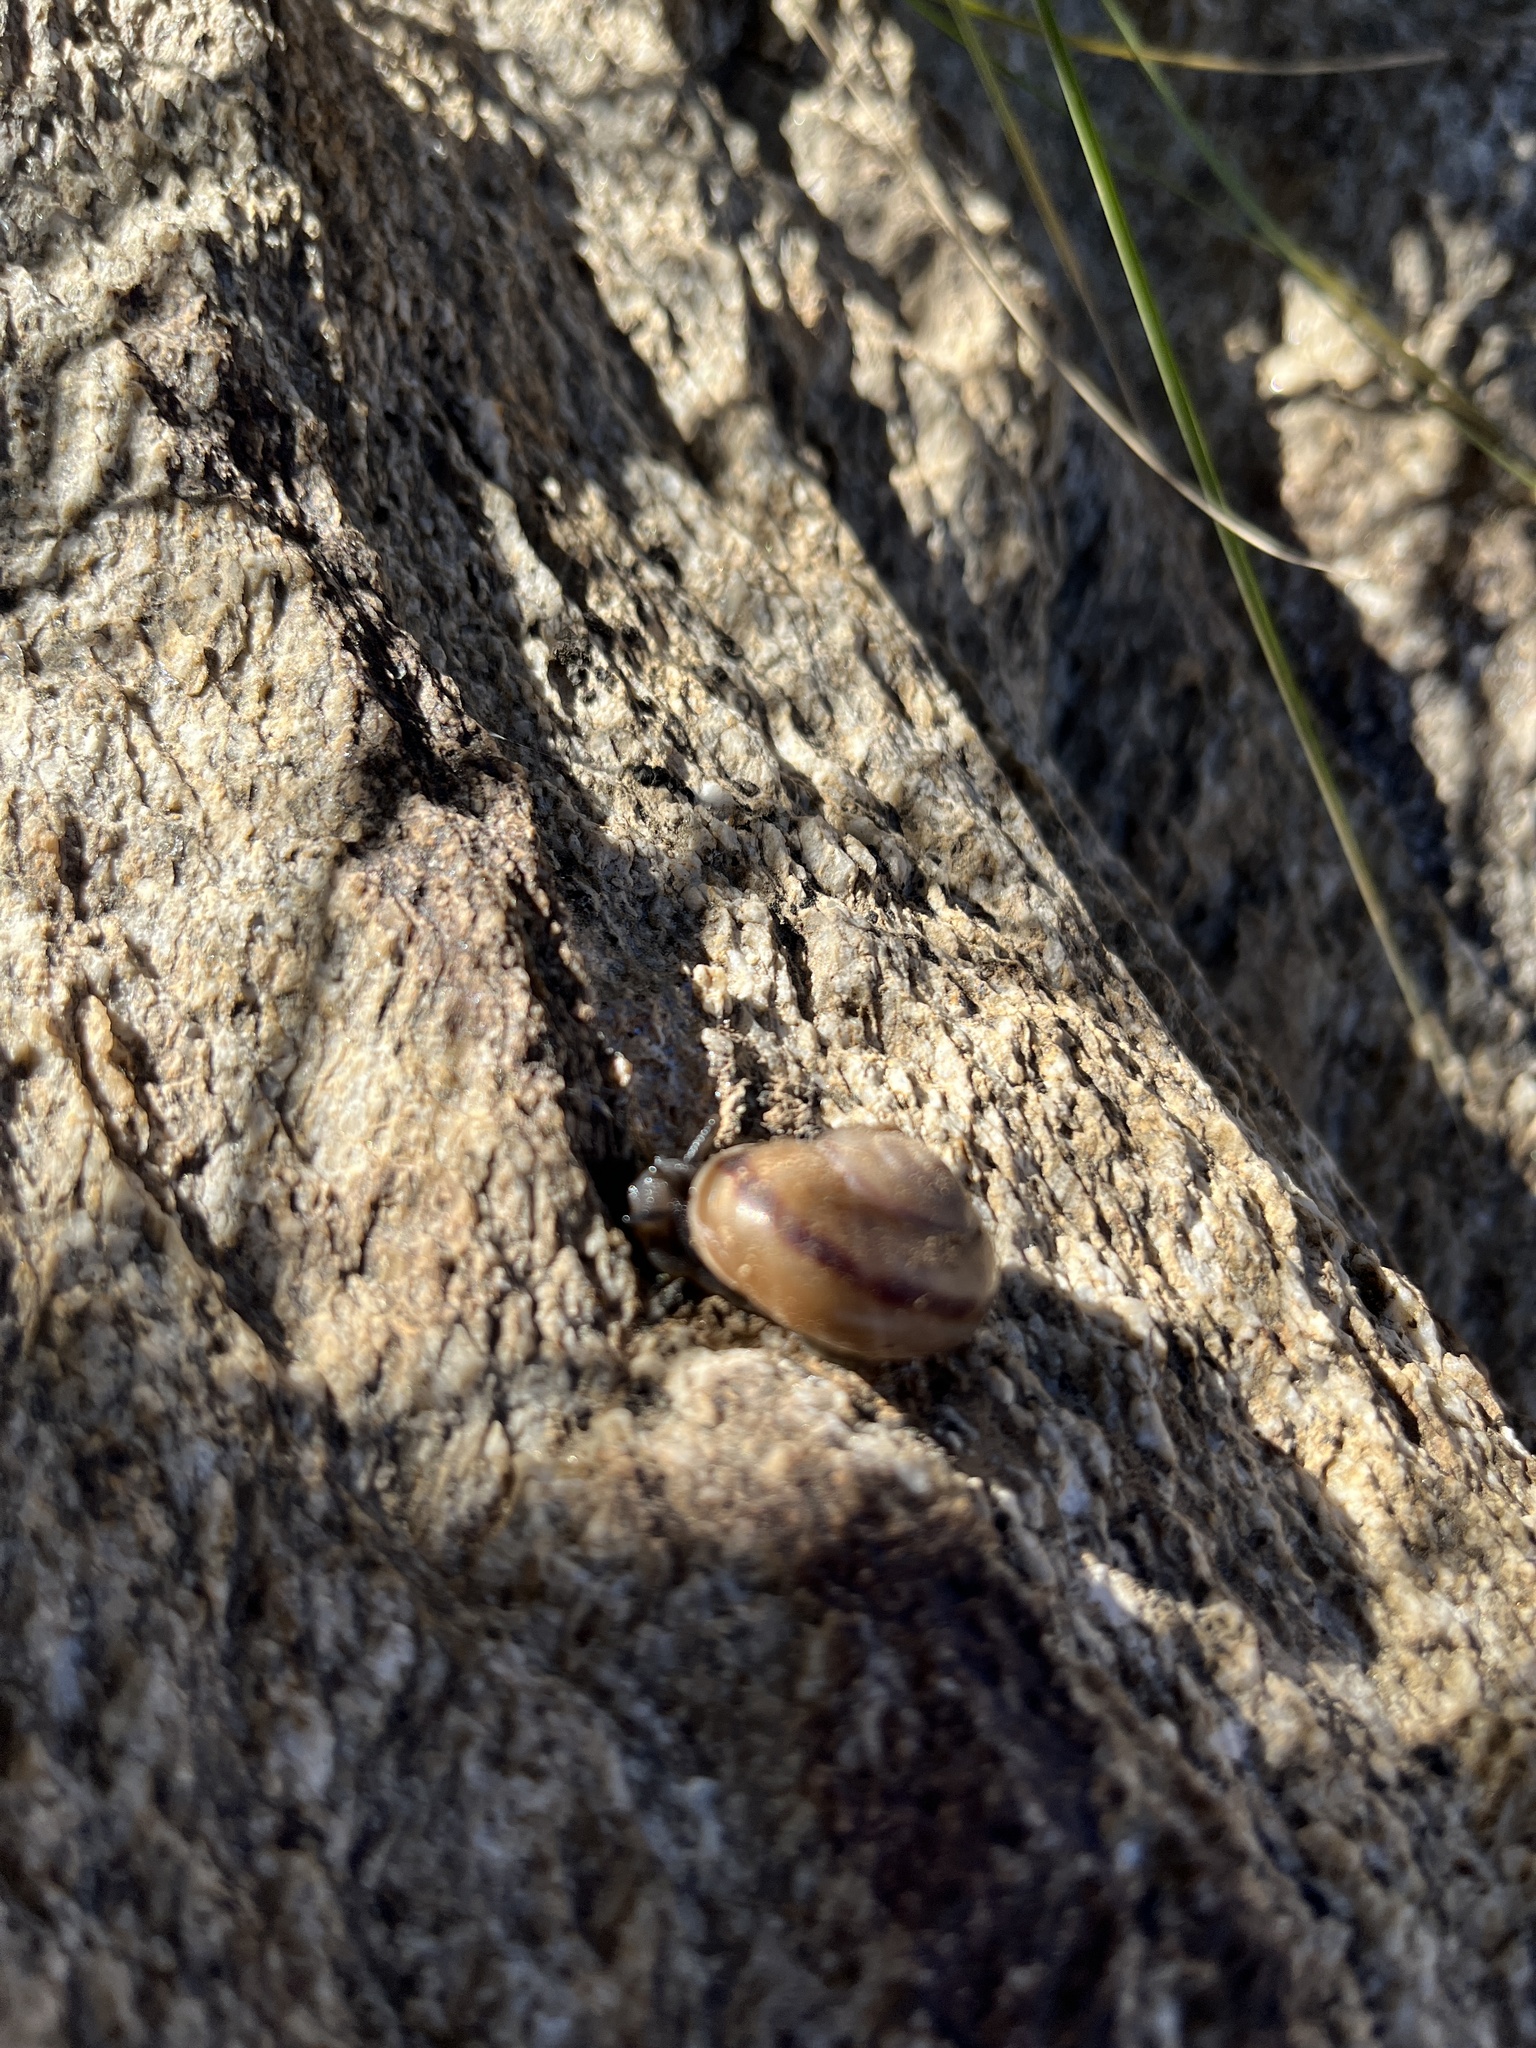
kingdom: Animalia
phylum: Mollusca
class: Gastropoda
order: Stylommatophora
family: Xanthonychidae
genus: Cahuillus
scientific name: Cahuillus indioensis
